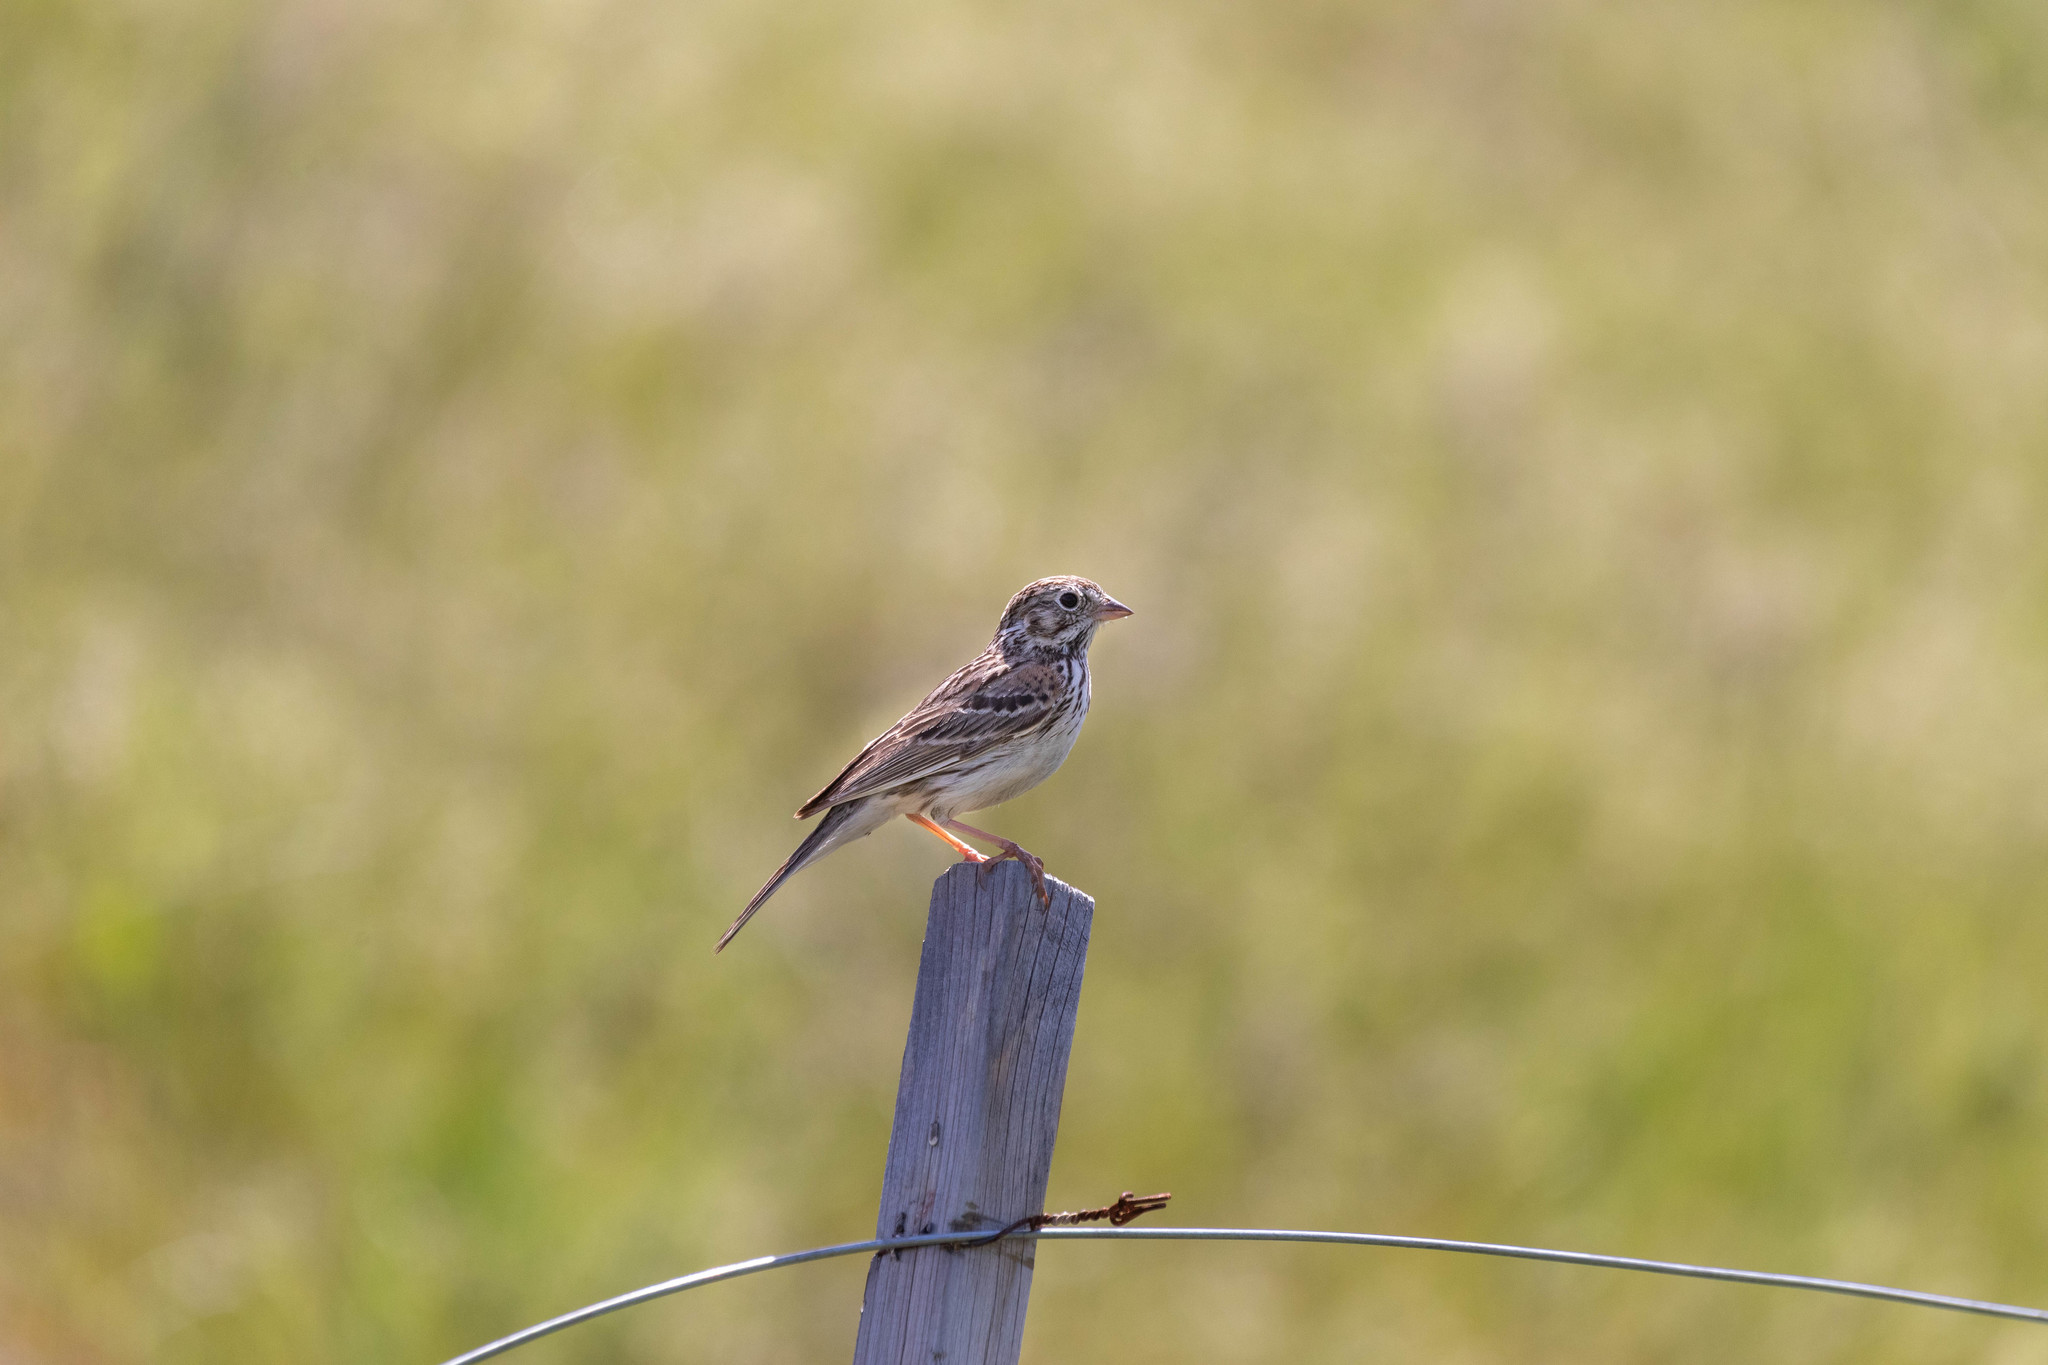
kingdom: Animalia
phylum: Chordata
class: Aves
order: Passeriformes
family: Passerellidae
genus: Pooecetes
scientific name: Pooecetes gramineus
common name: Vesper sparrow
